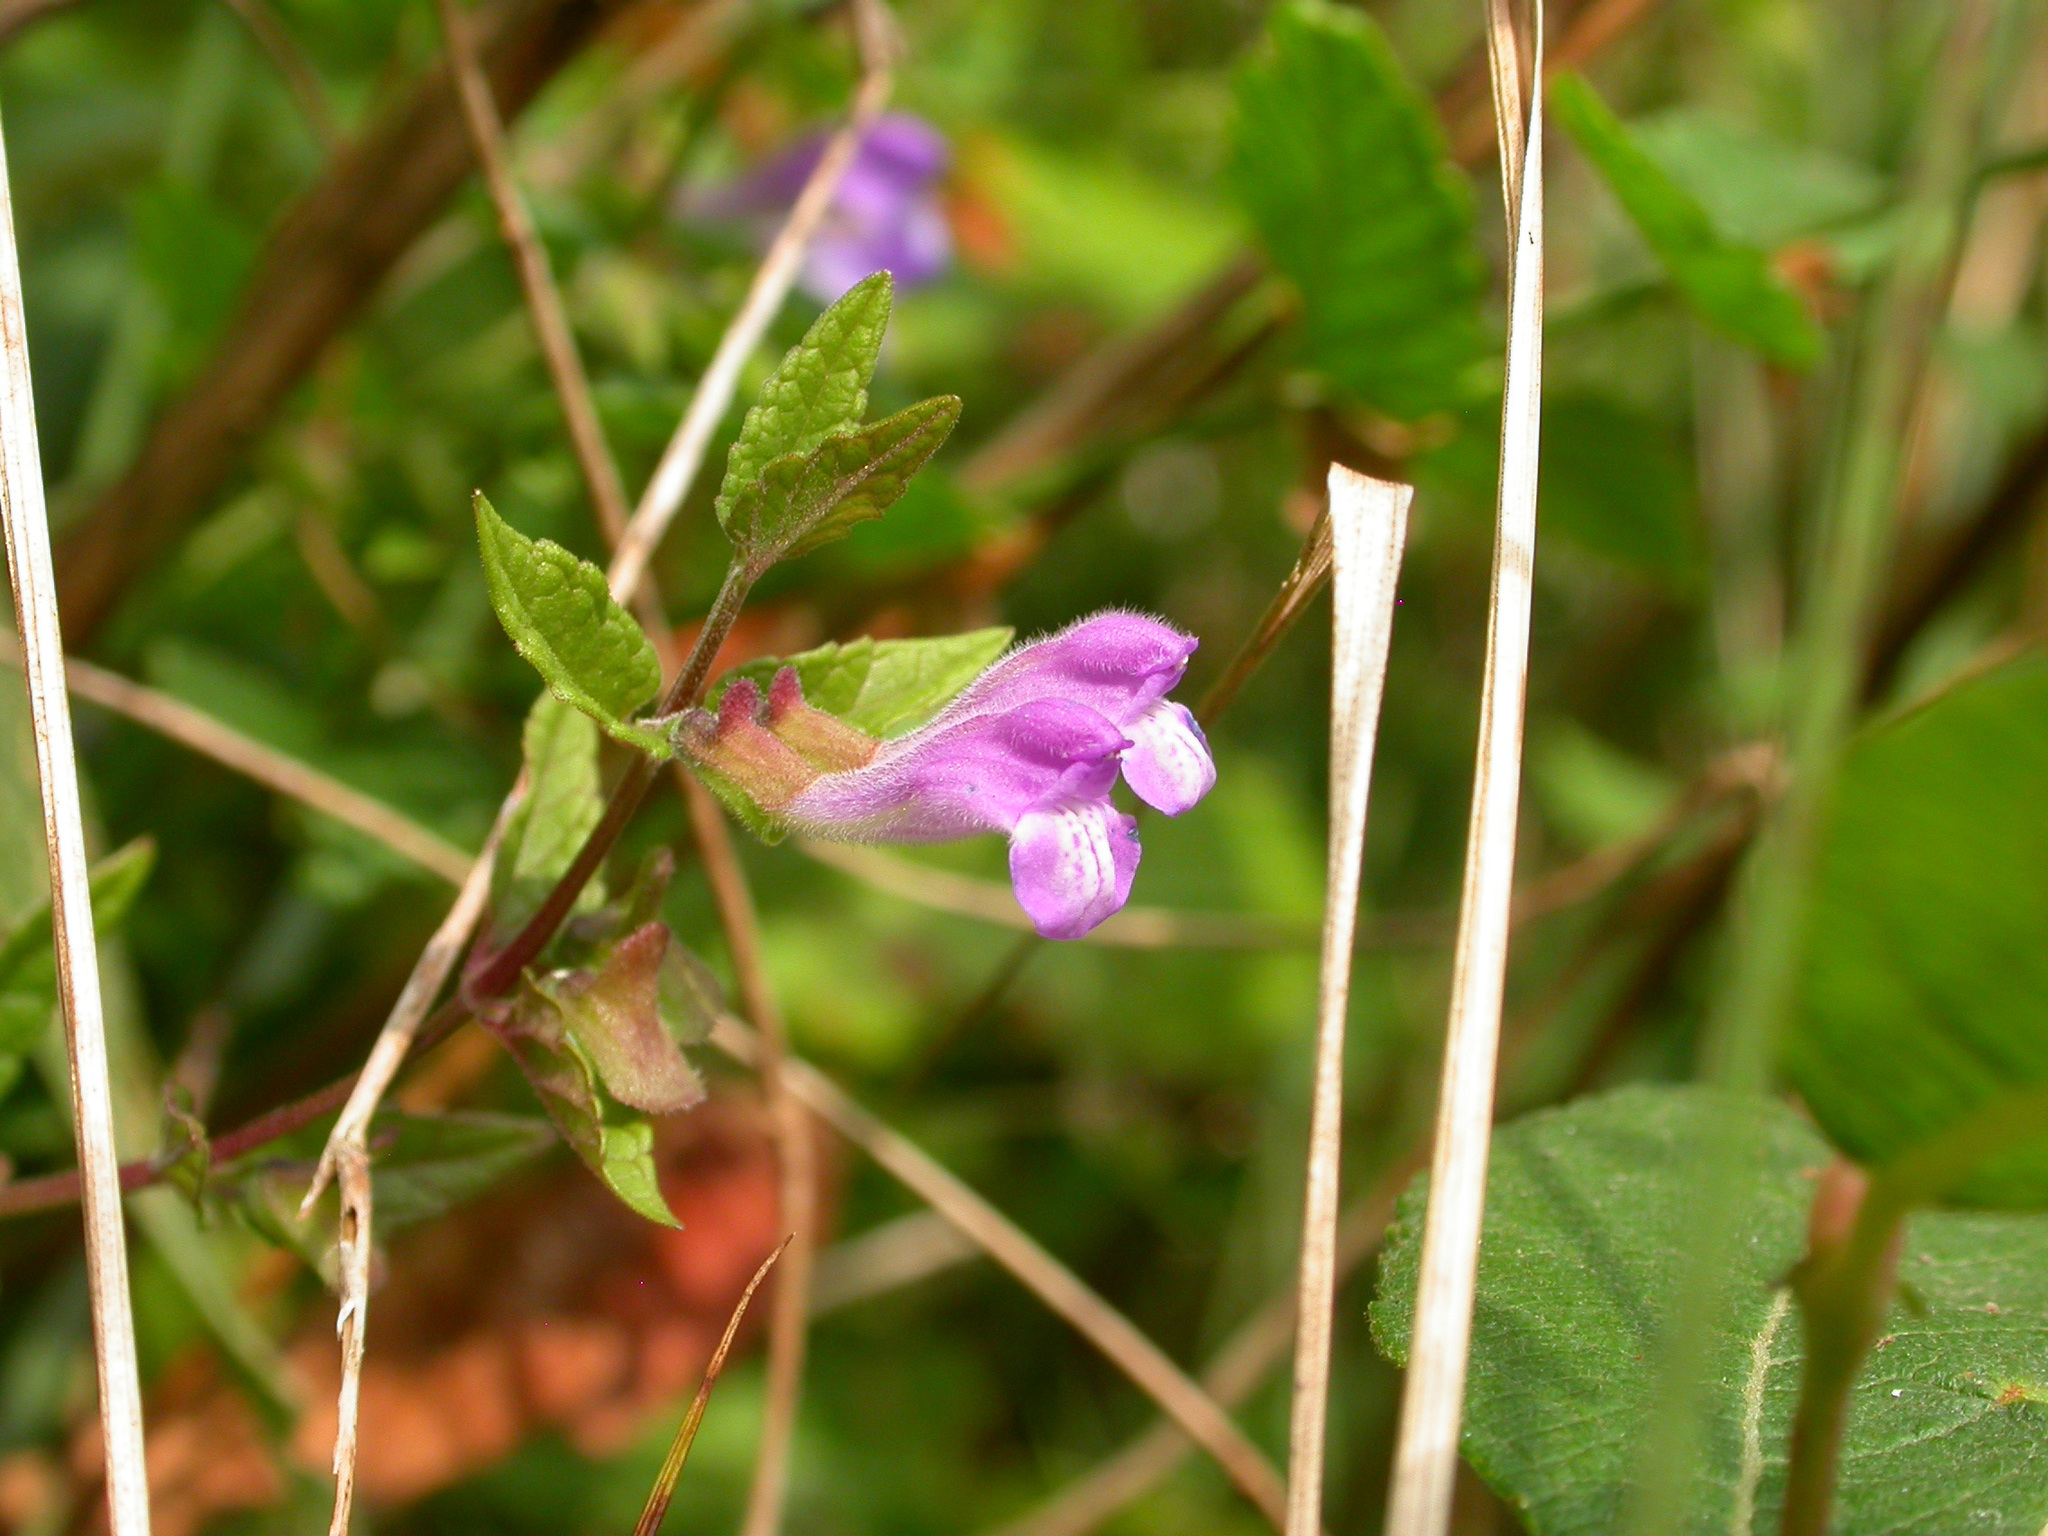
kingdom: Plantae
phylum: Tracheophyta
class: Magnoliopsida
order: Lamiales
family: Lamiaceae
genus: Scutellaria
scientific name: Scutellaria galericulata
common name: Skullcap
